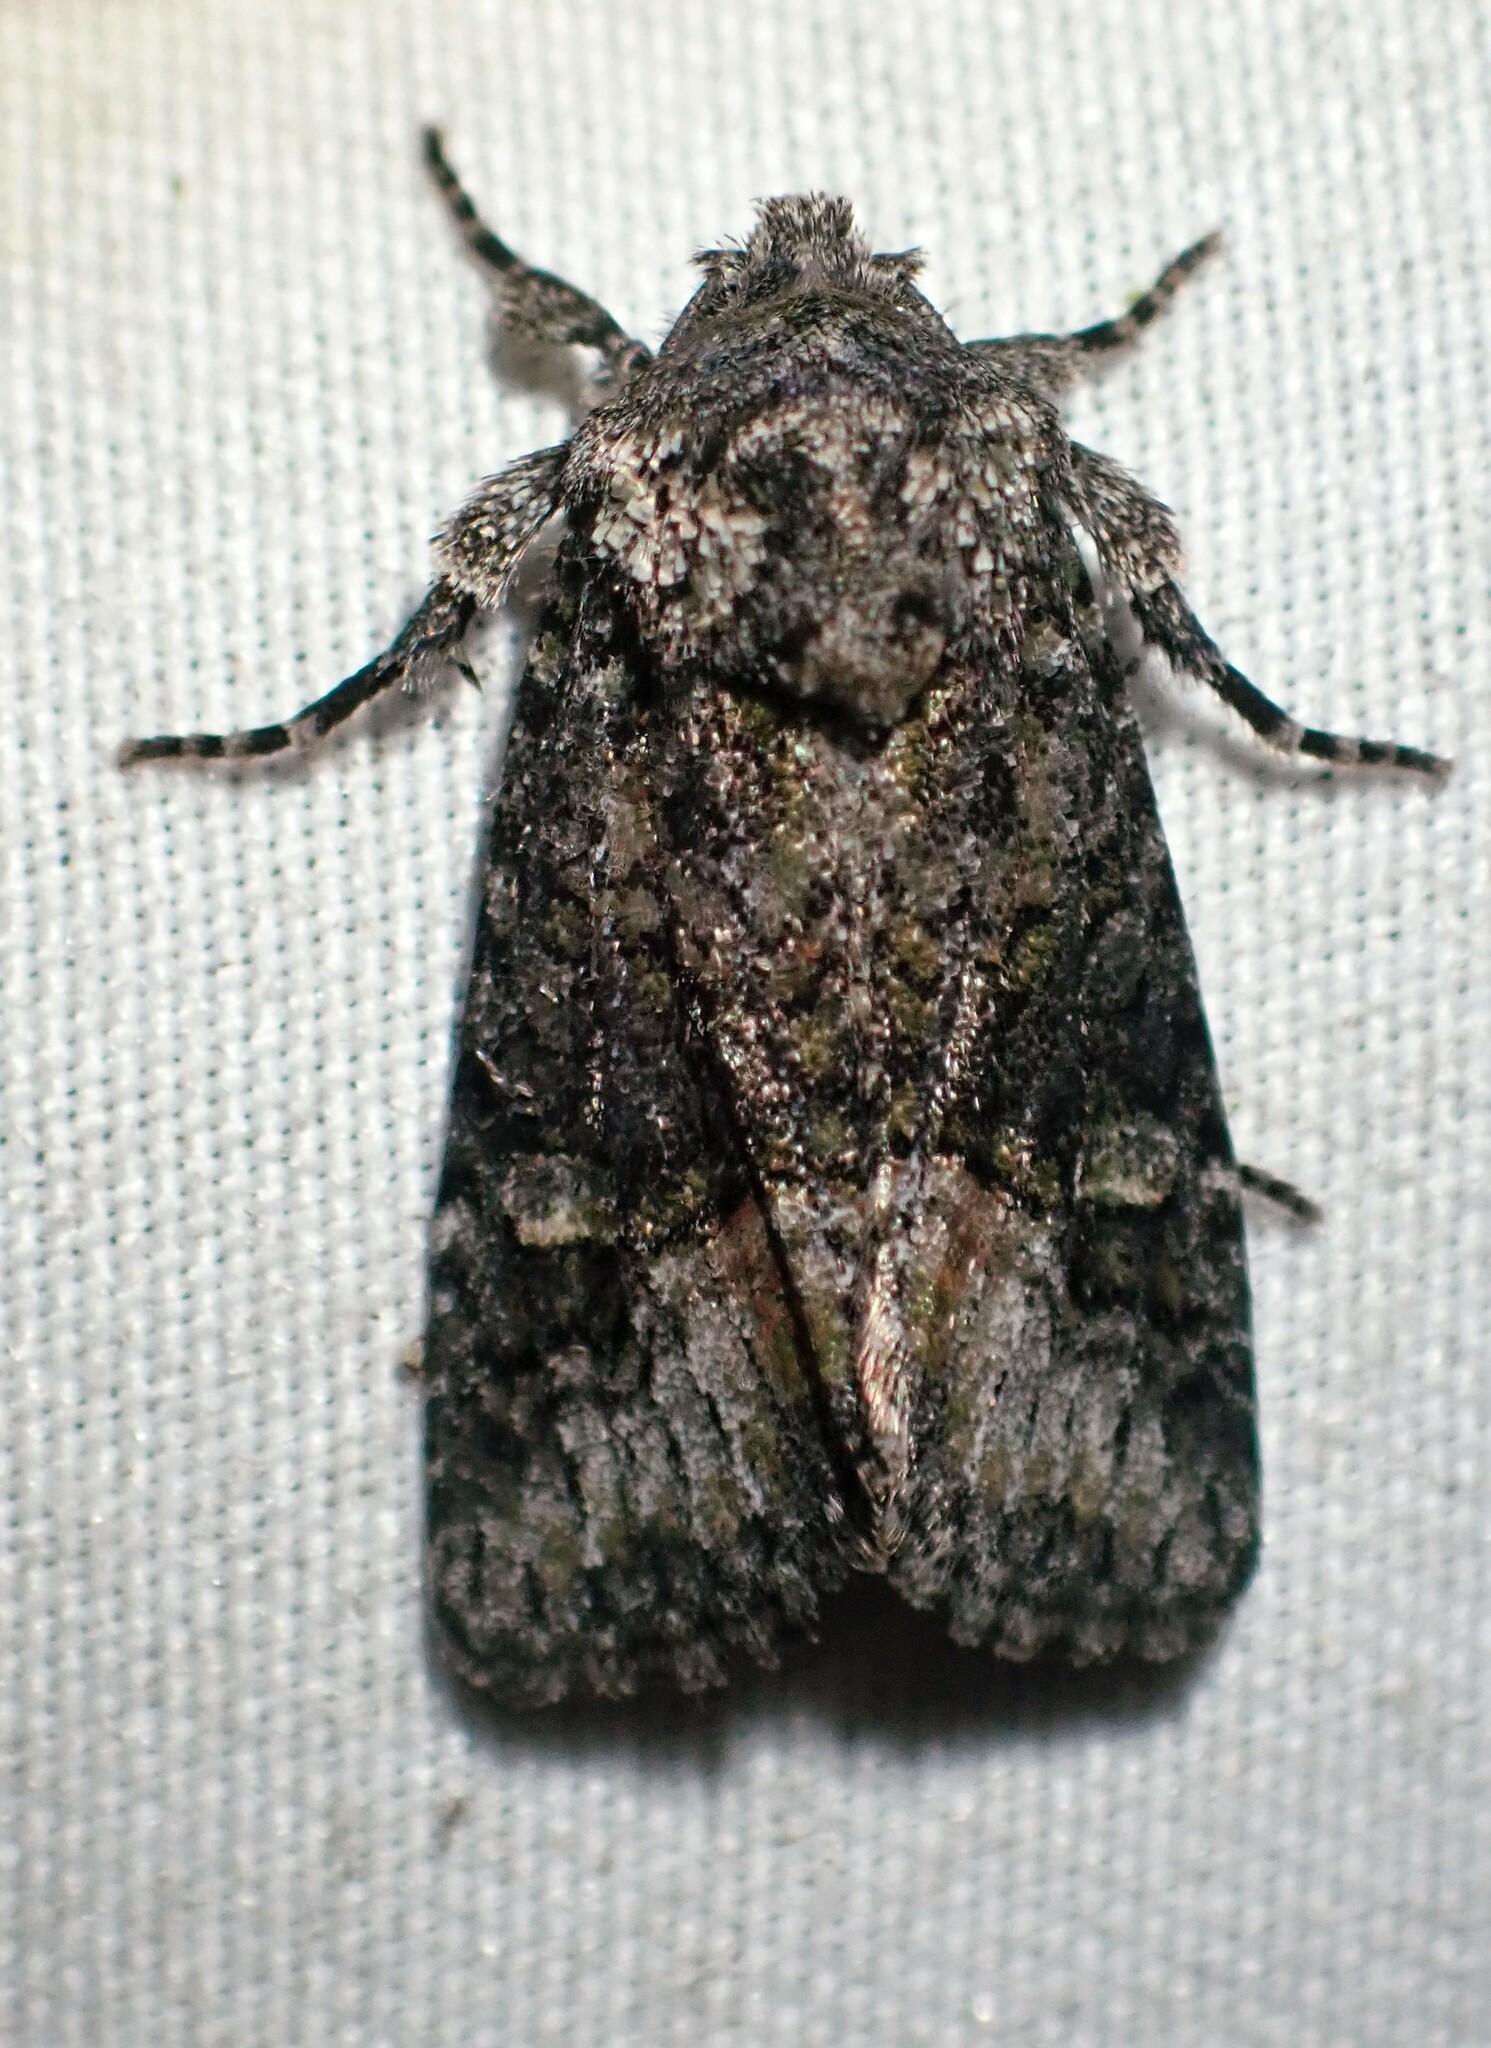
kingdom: Animalia
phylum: Arthropoda
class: Insecta
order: Lepidoptera
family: Noctuidae
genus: Lacinipolia
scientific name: Lacinipolia olivacea
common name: Olive arches moth
